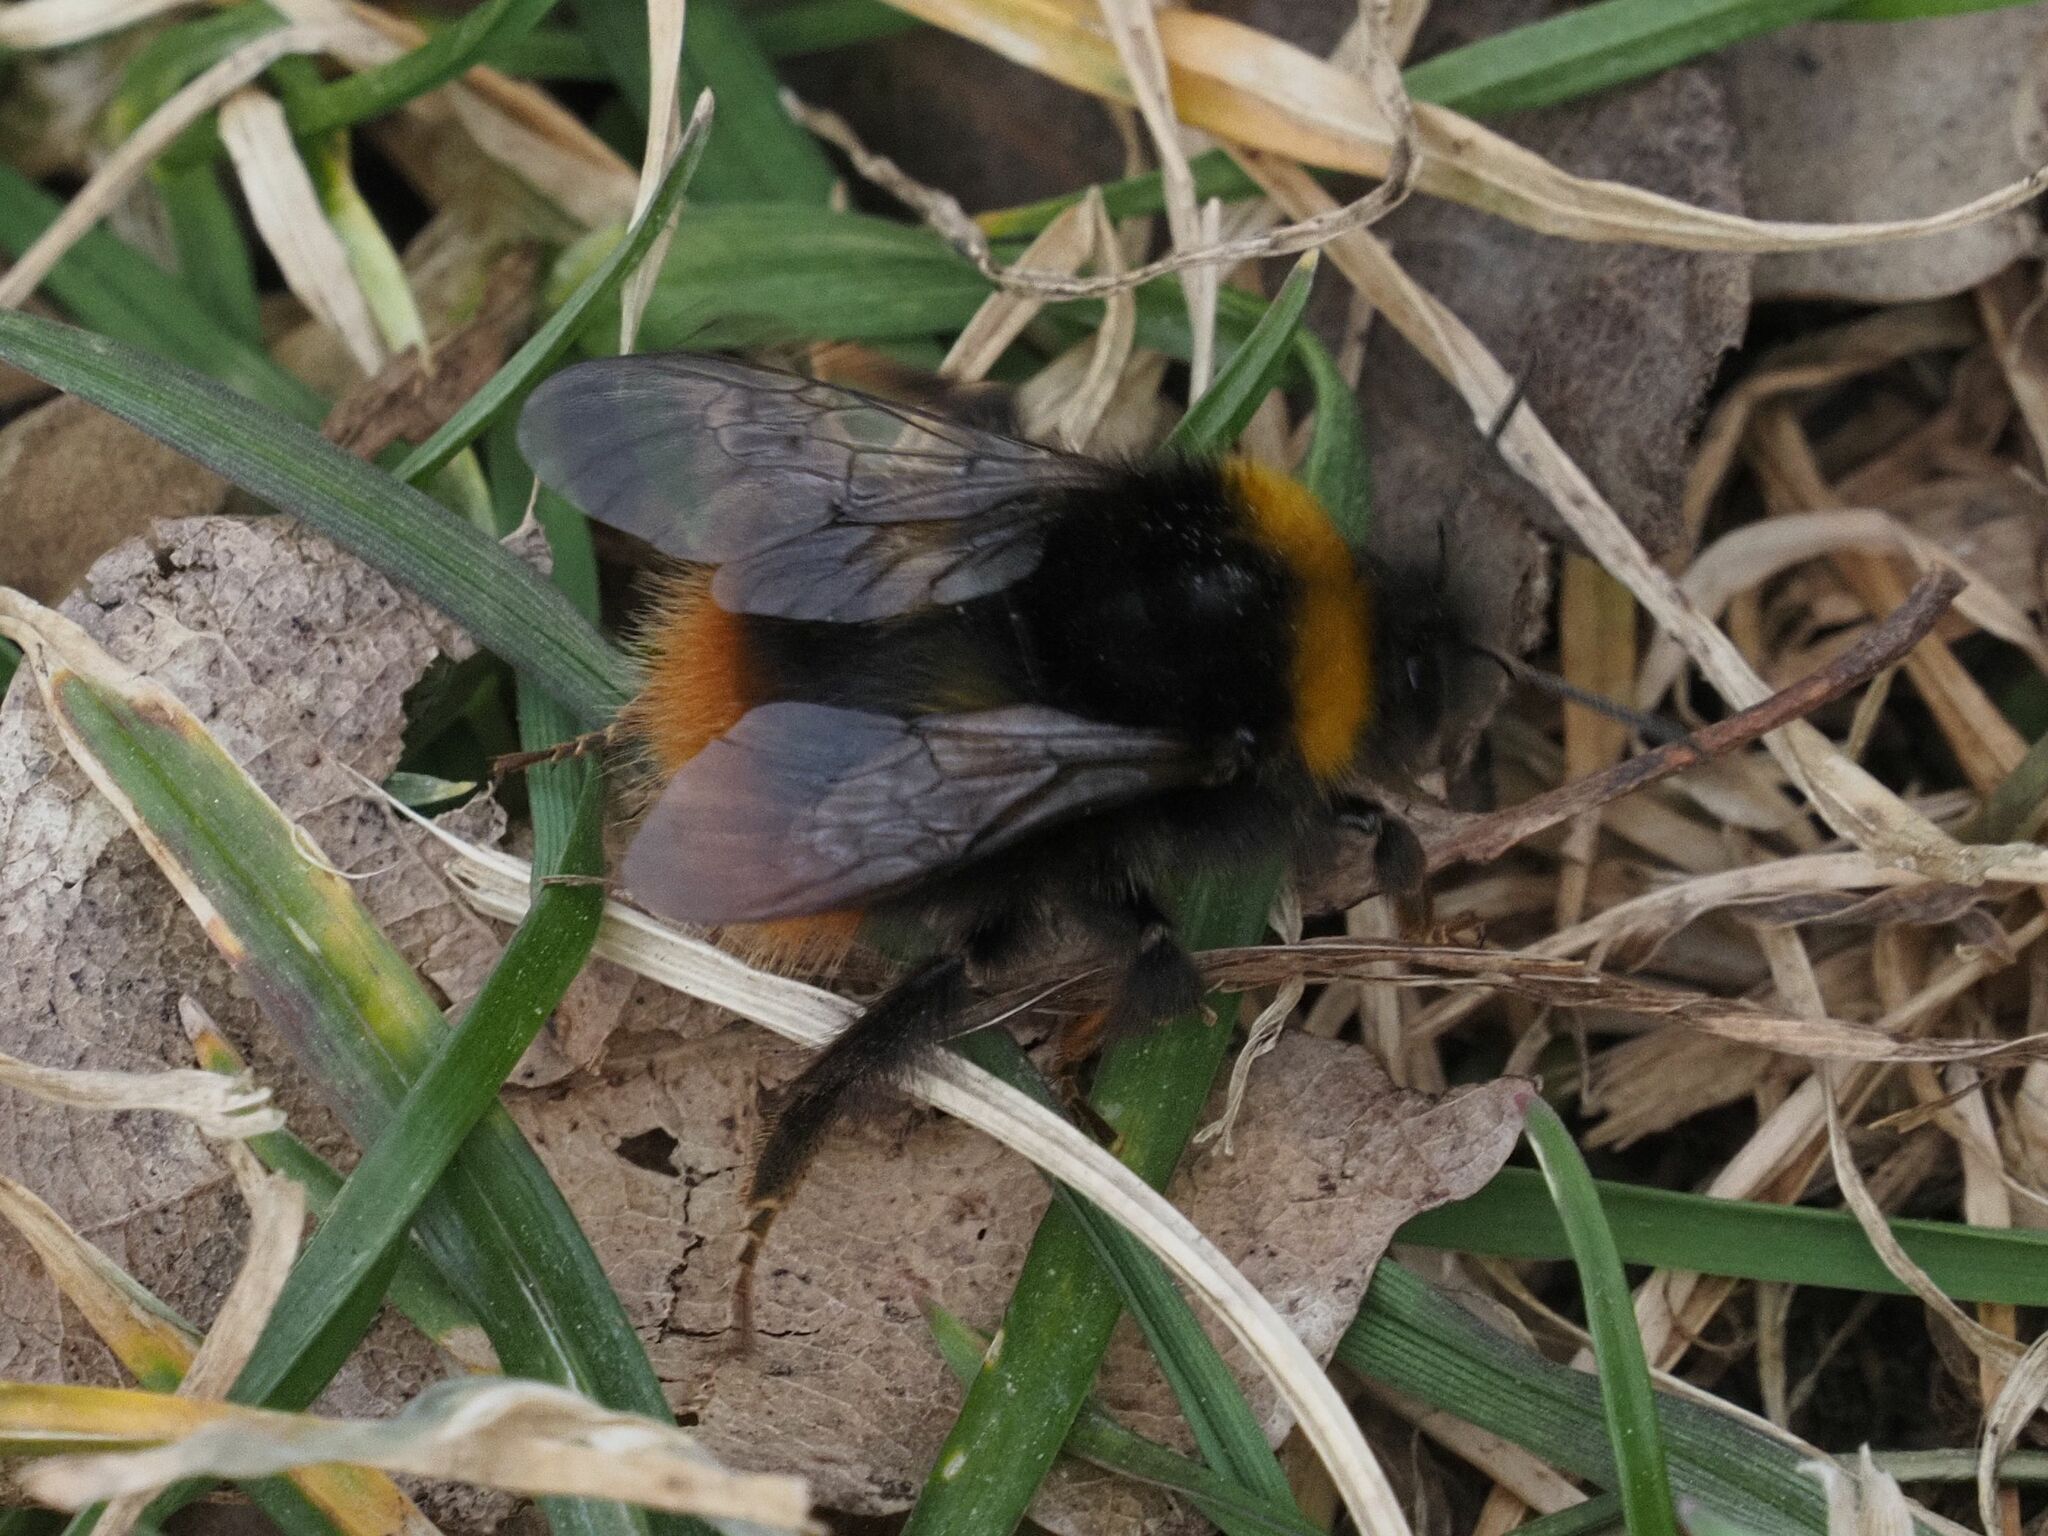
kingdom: Animalia
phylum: Arthropoda
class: Insecta
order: Hymenoptera
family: Apidae
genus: Bombus
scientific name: Bombus pratorum
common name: Early humble-bee
